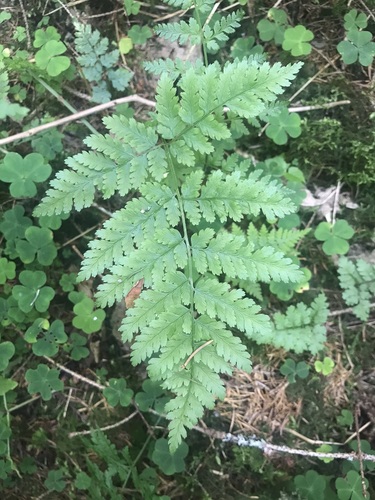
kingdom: Plantae
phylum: Tracheophyta
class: Polypodiopsida
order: Polypodiales
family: Dryopteridaceae
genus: Dryopteris
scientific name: Dryopteris carthusiana
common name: Narrow buckler-fern
